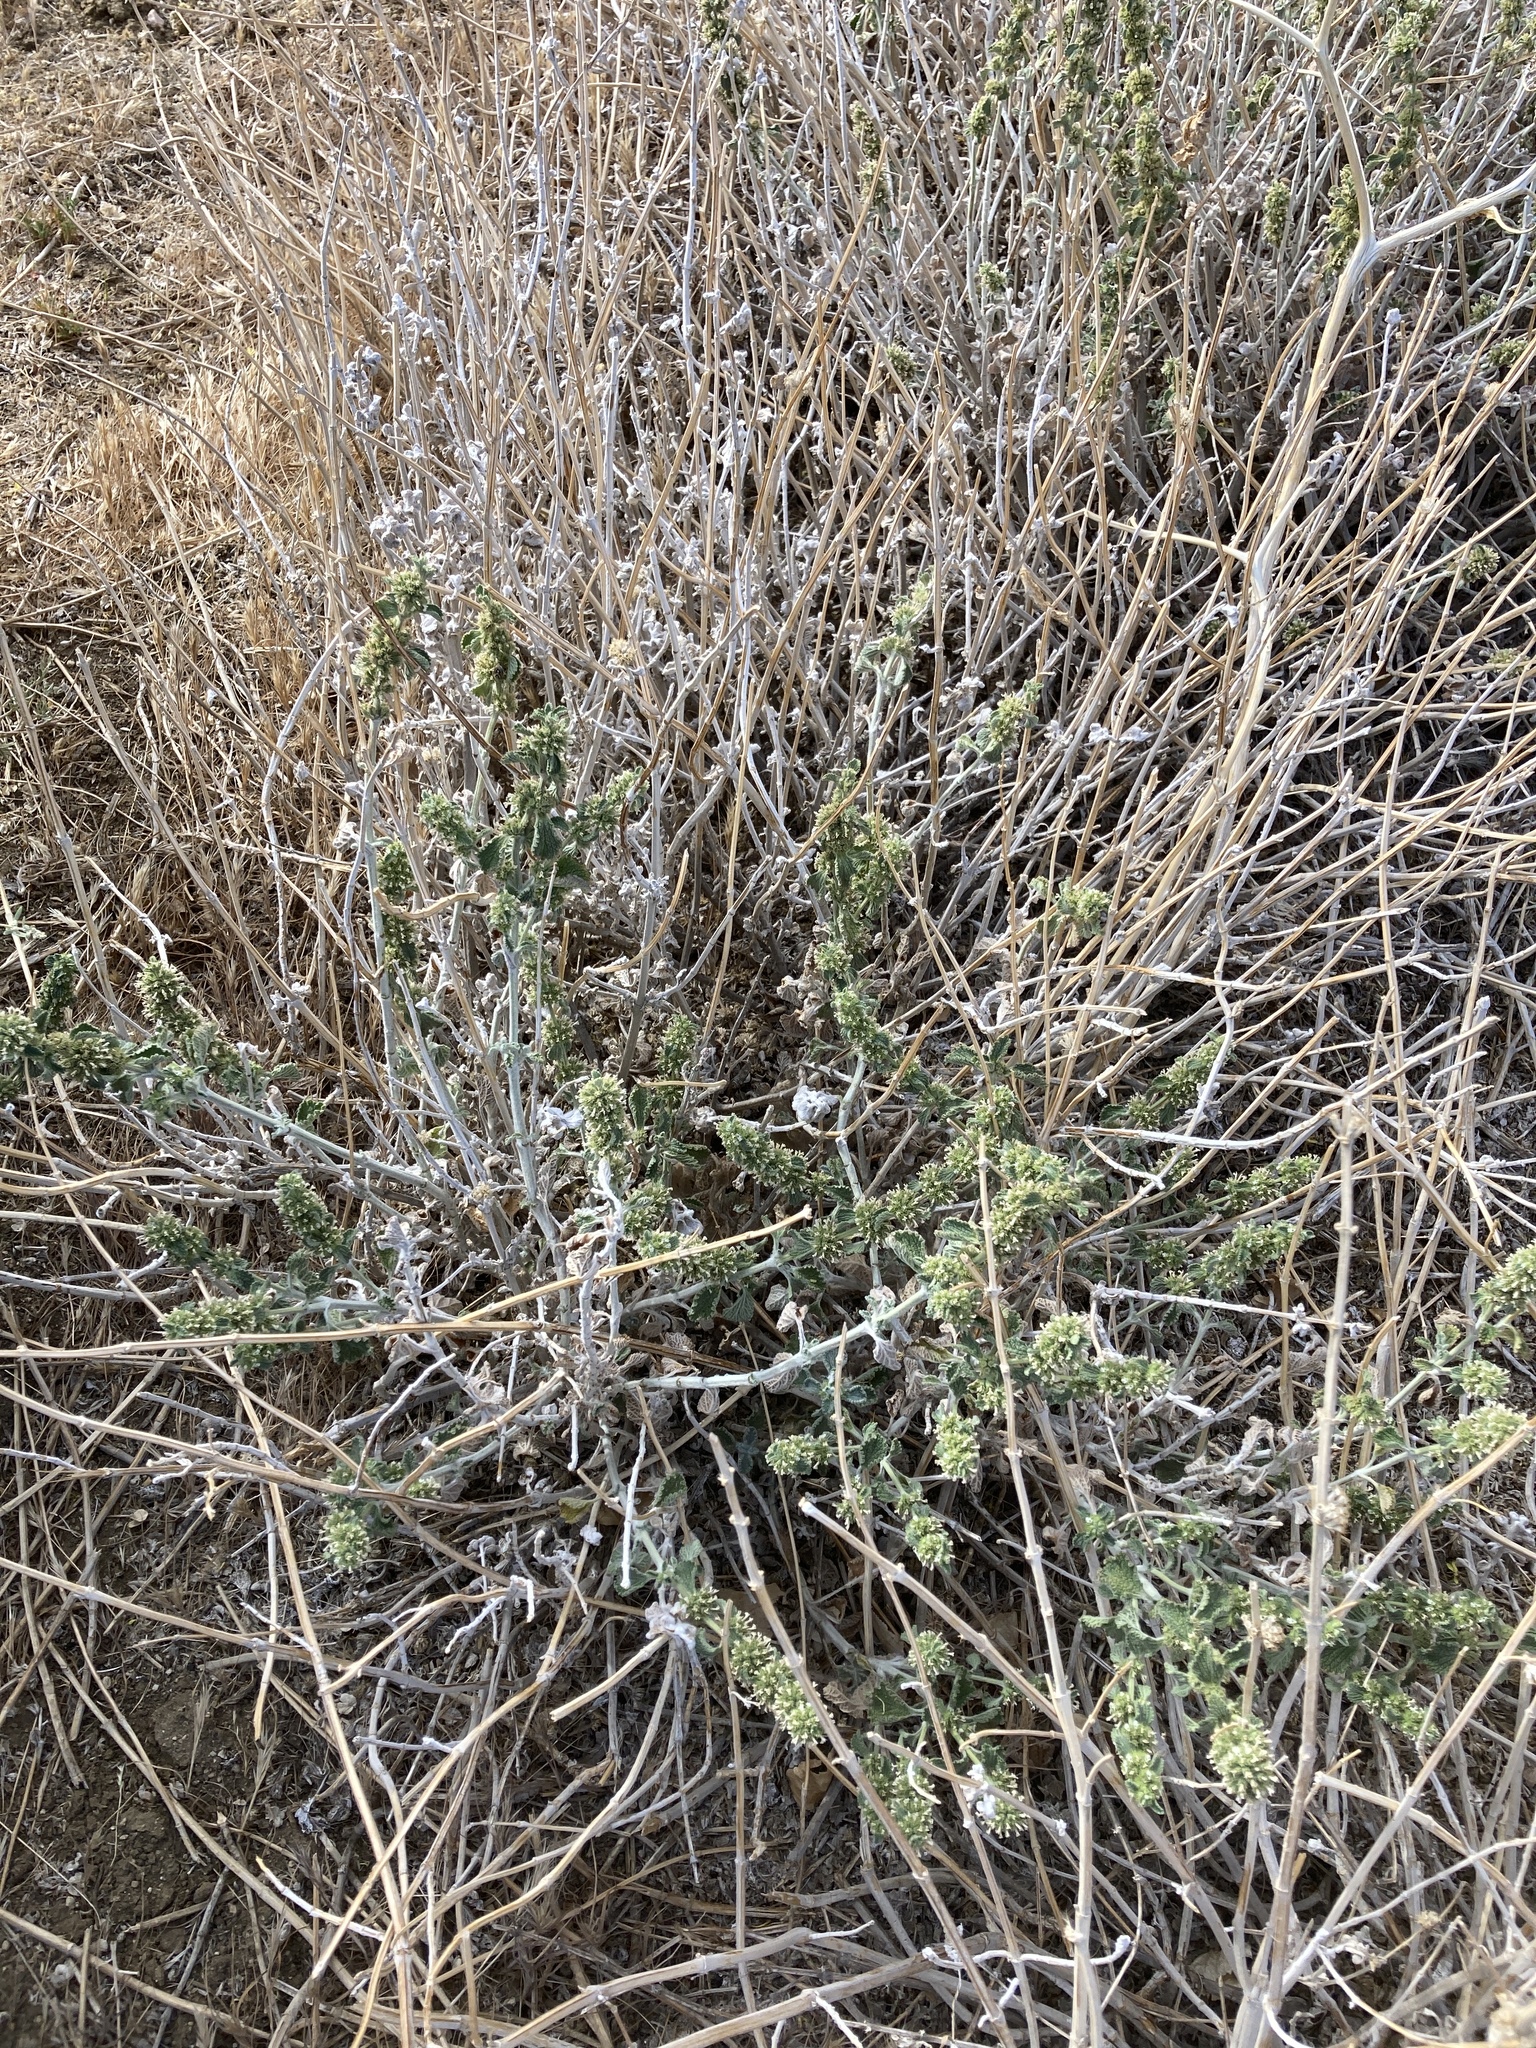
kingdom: Plantae
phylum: Tracheophyta
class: Magnoliopsida
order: Lamiales
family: Lamiaceae
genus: Marrubium
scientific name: Marrubium vulgare
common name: Horehound
